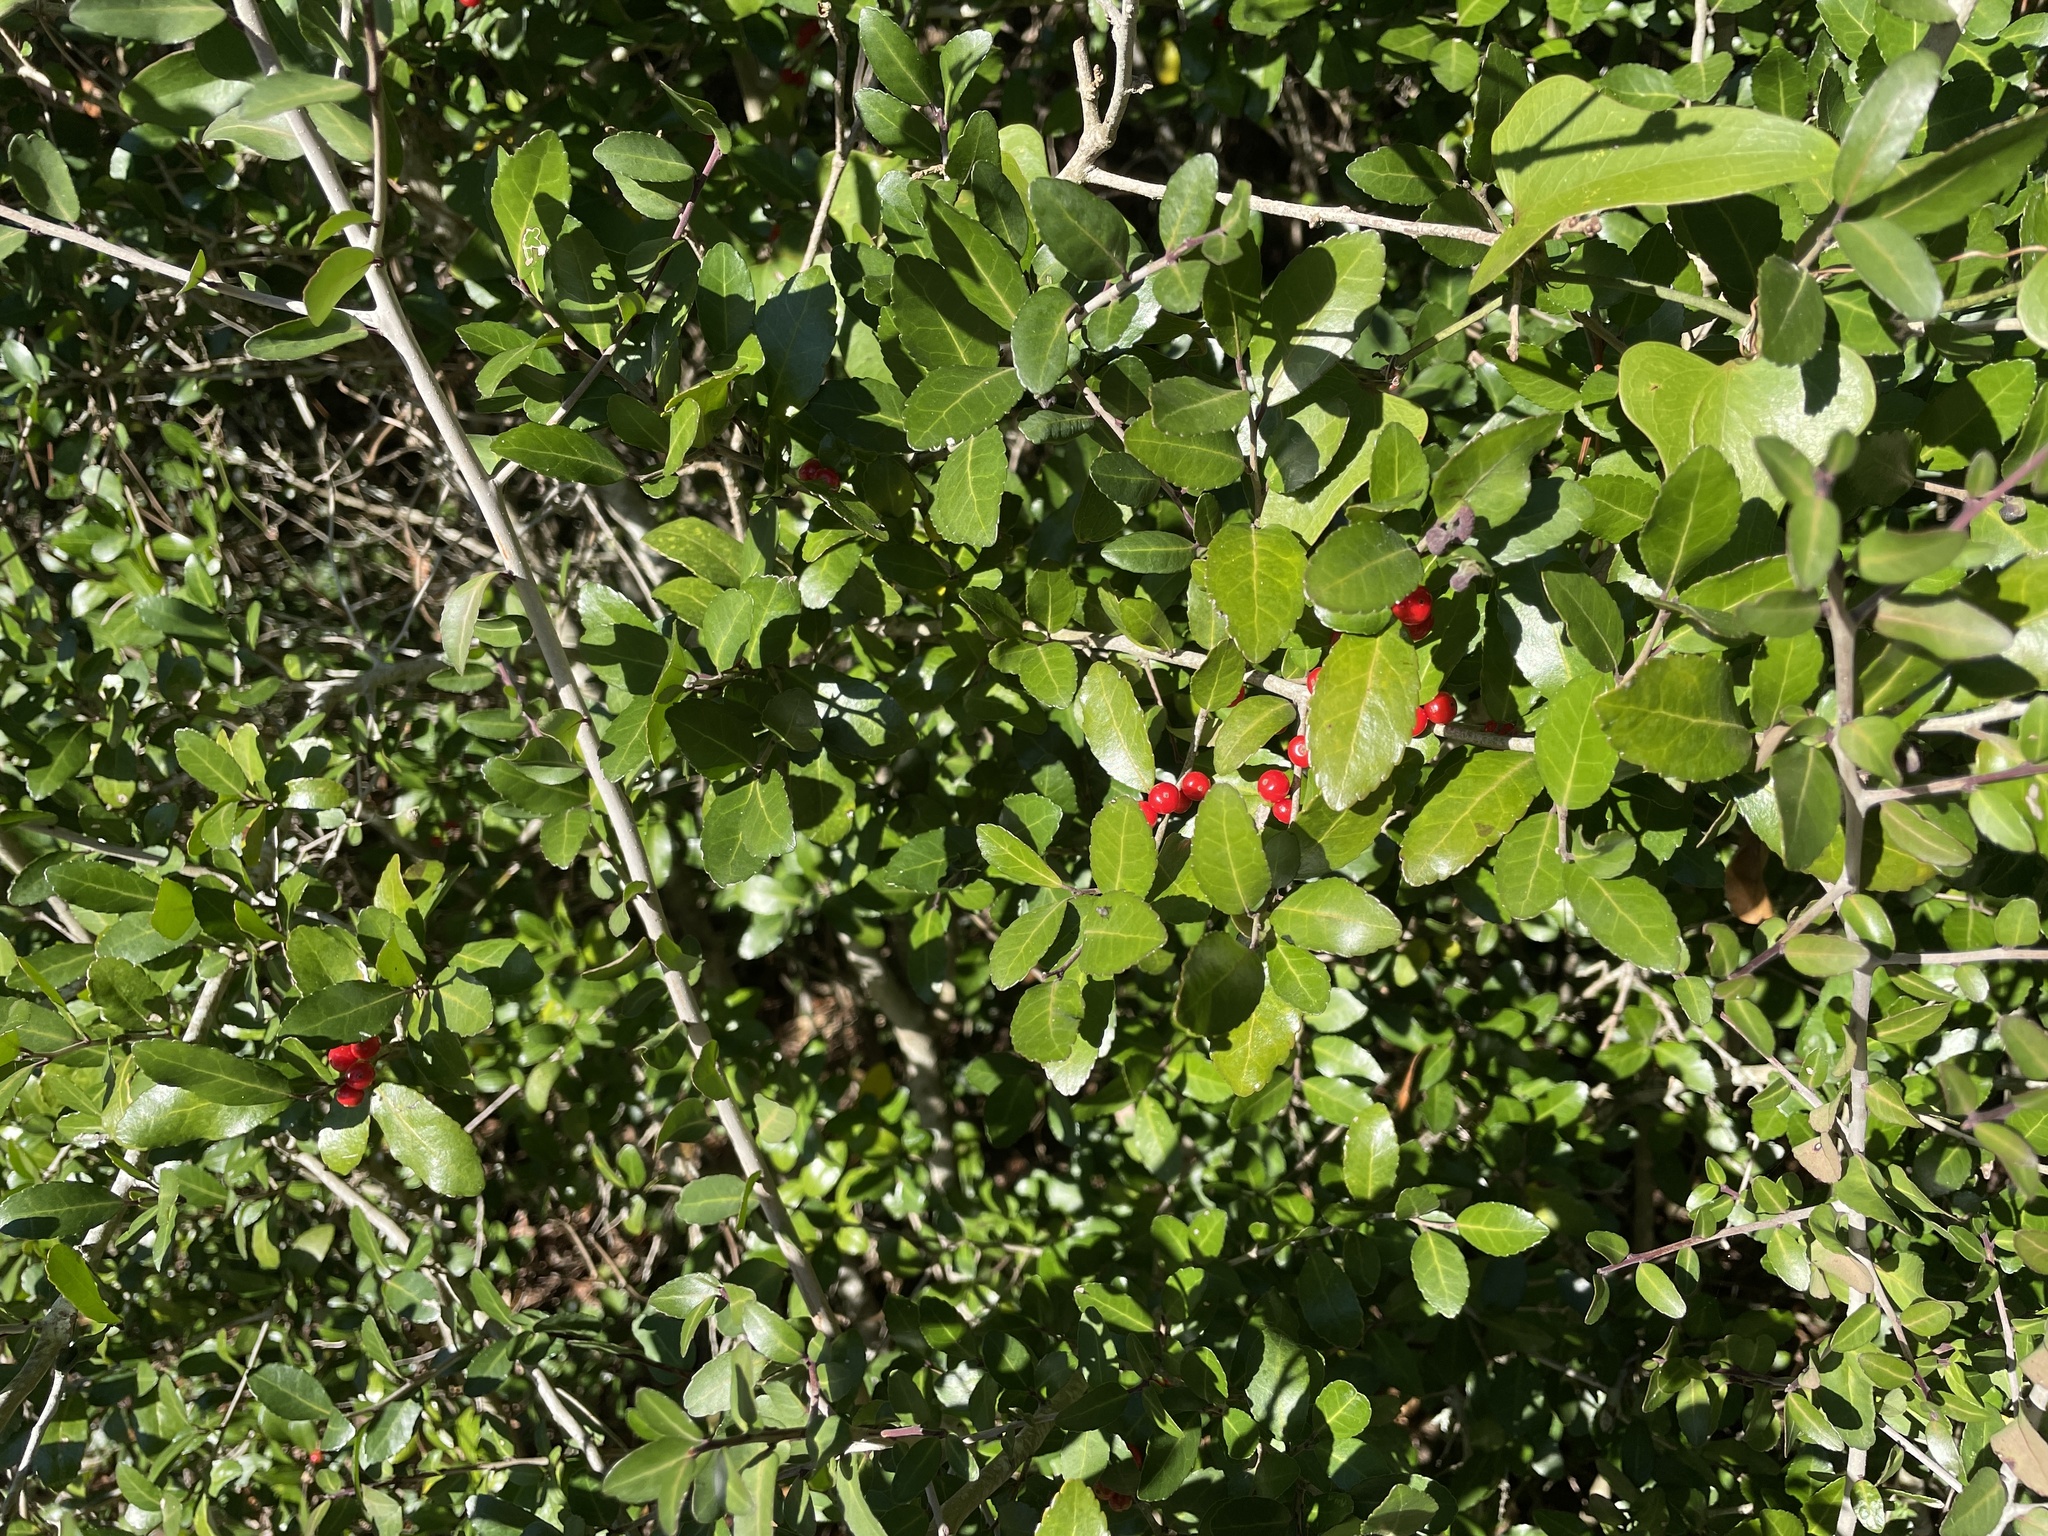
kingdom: Plantae
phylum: Tracheophyta
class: Magnoliopsida
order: Aquifoliales
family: Aquifoliaceae
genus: Ilex
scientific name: Ilex vomitoria
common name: Yaupon holly
